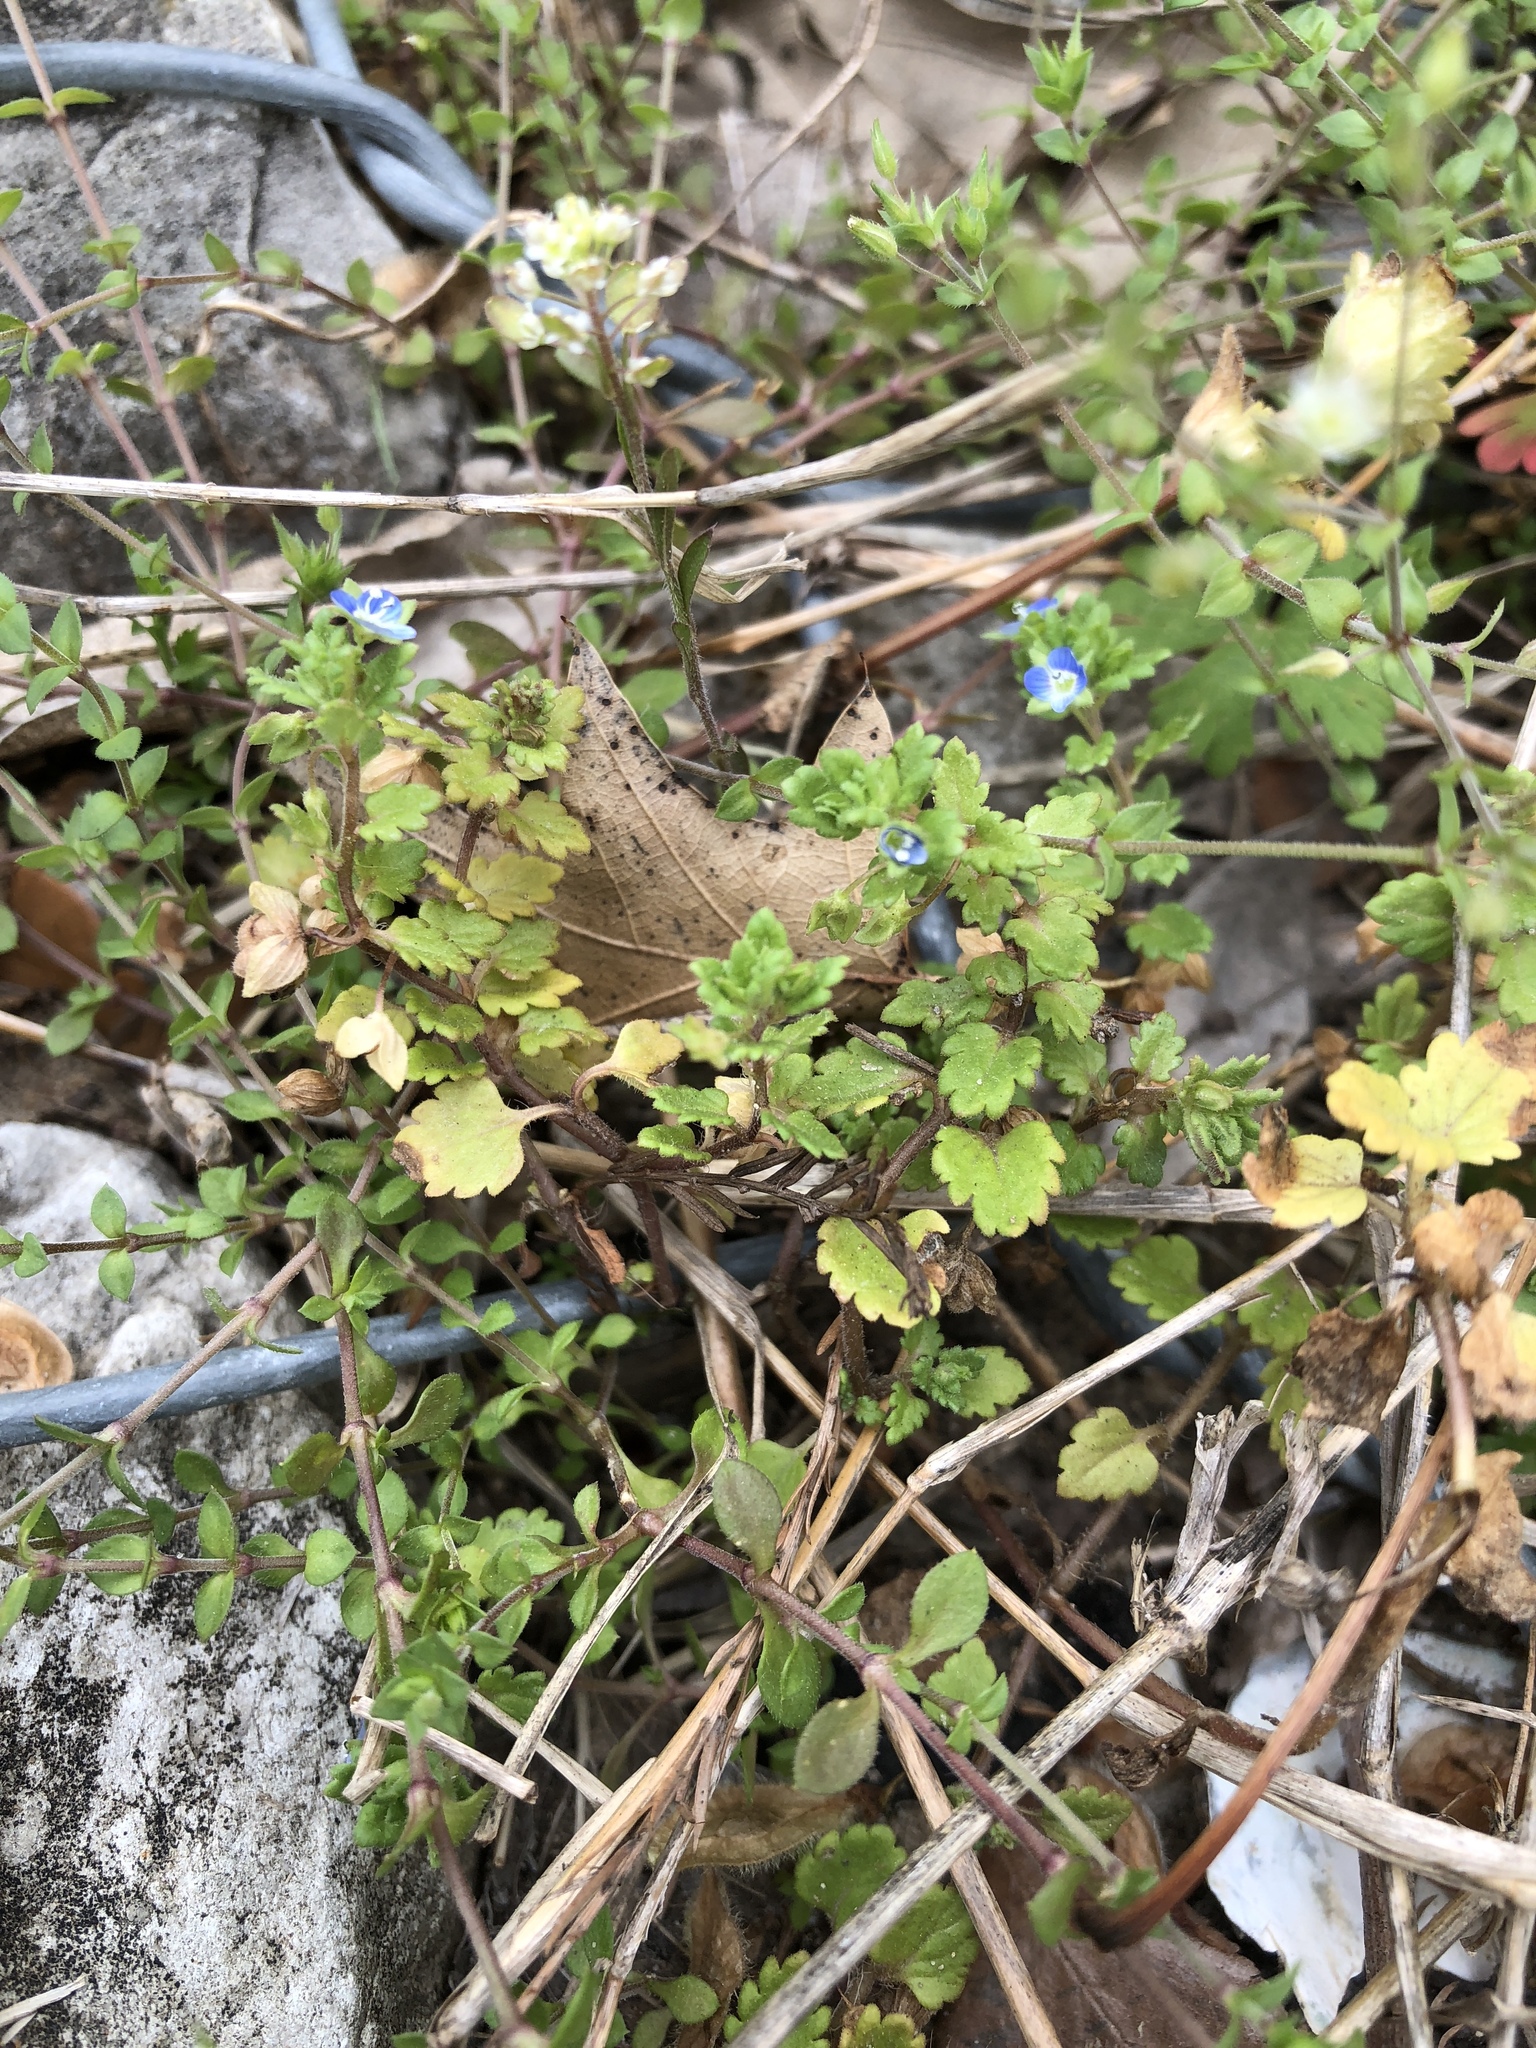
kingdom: Plantae
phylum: Tracheophyta
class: Magnoliopsida
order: Lamiales
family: Plantaginaceae
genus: Veronica
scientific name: Veronica polita
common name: Grey field-speedwell
